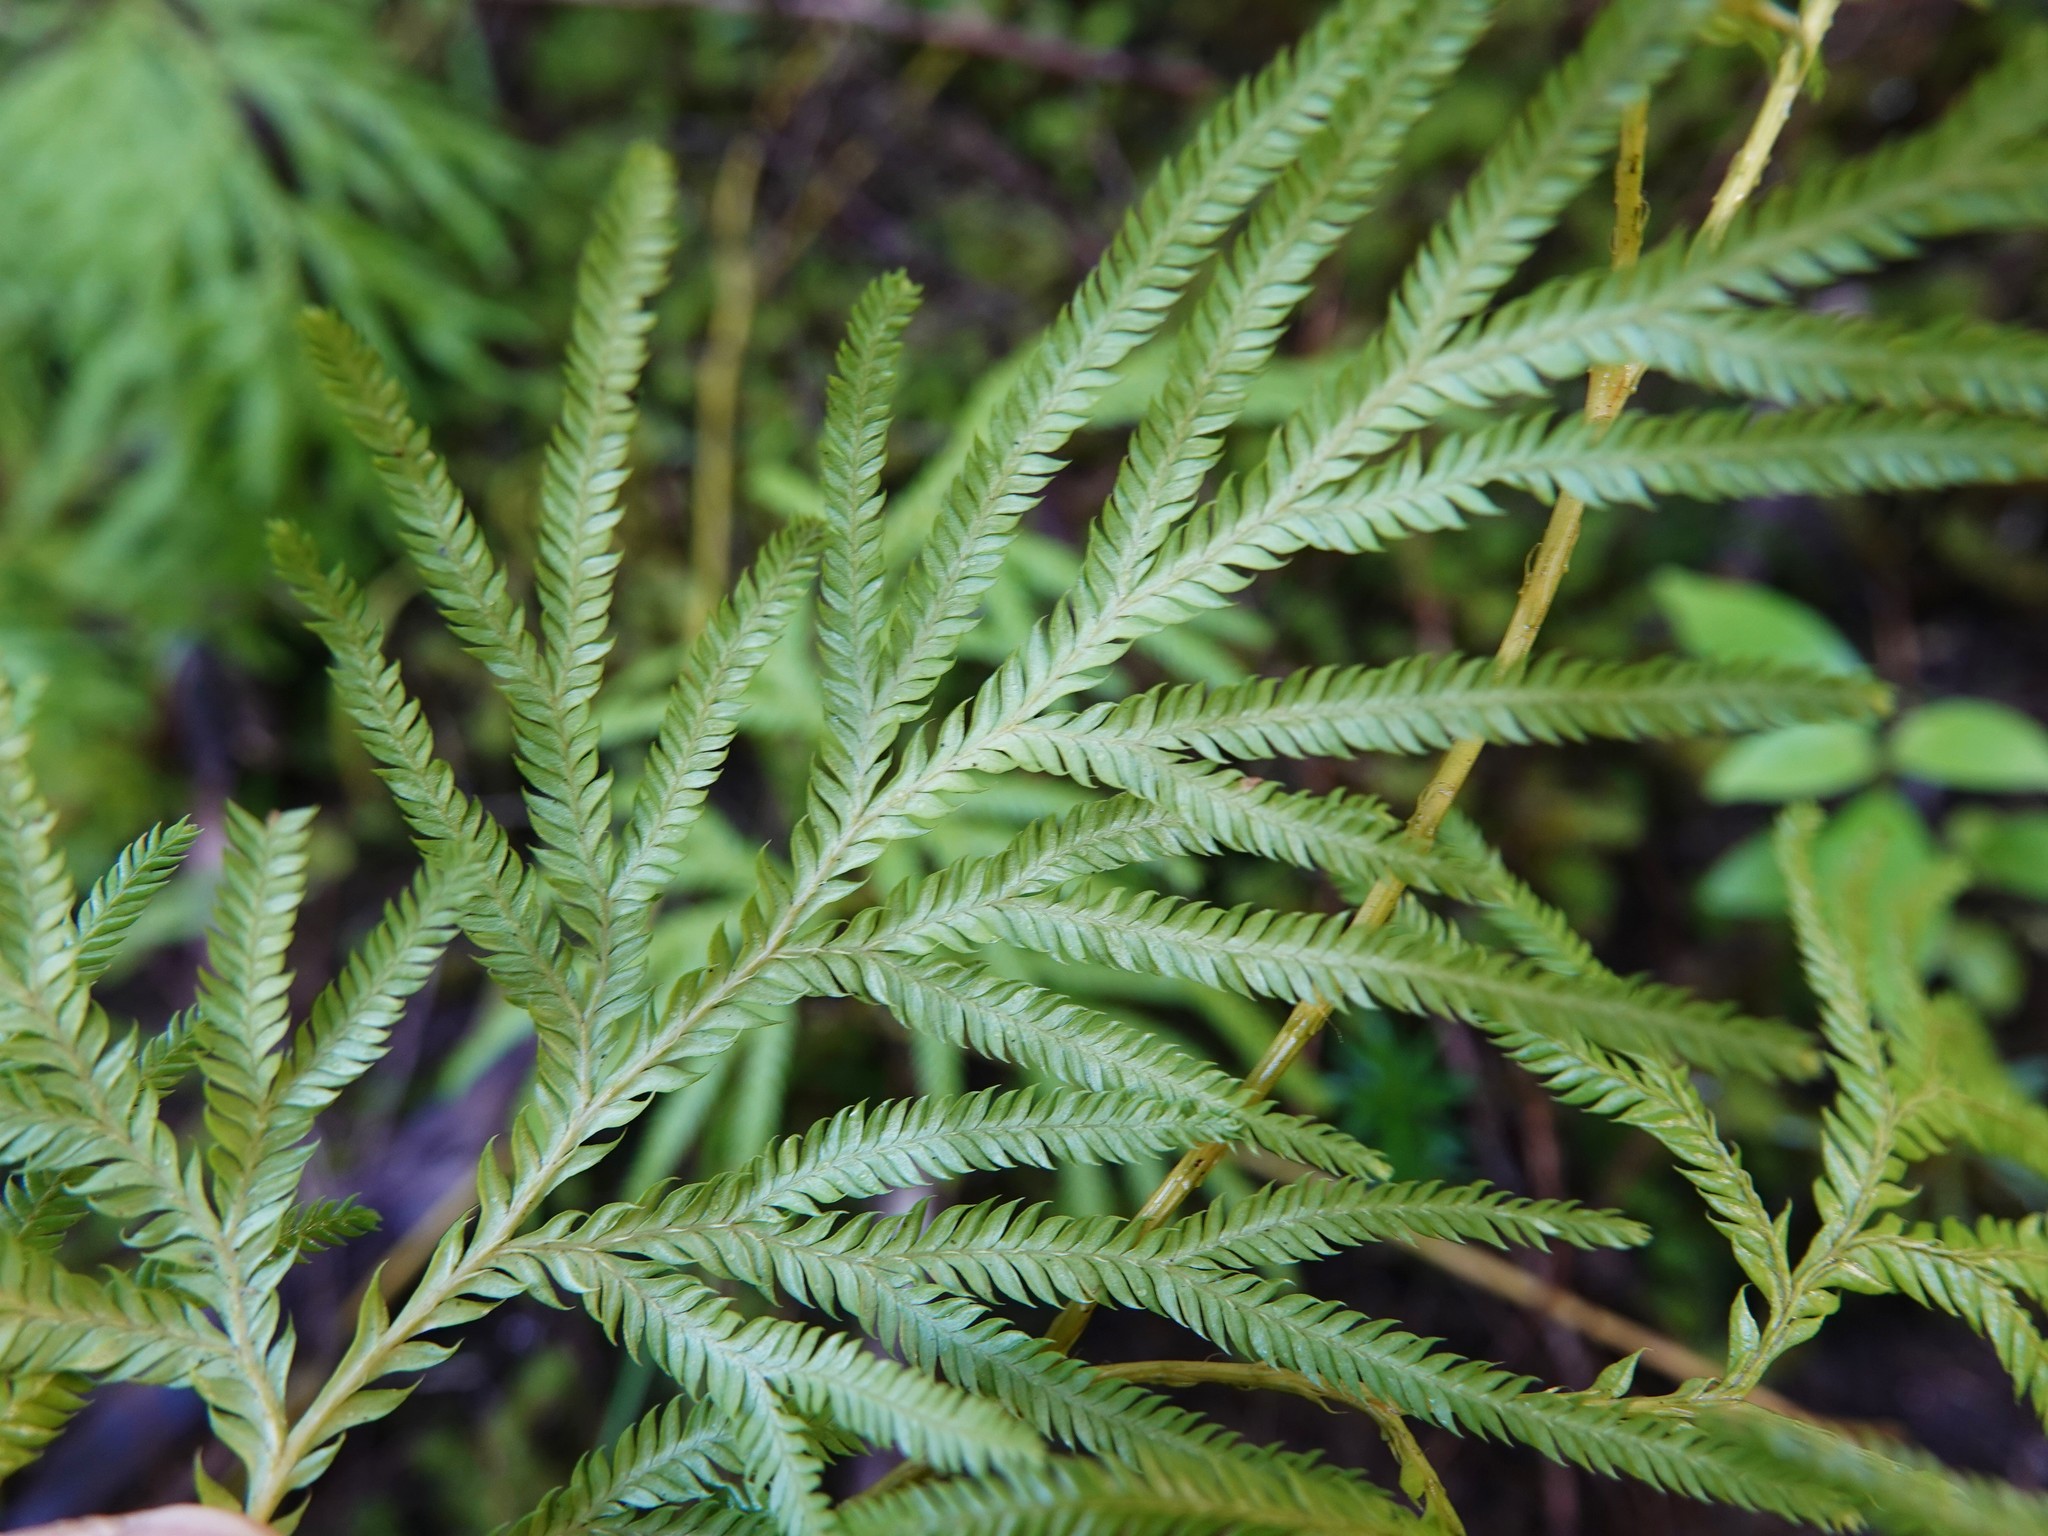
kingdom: Plantae
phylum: Tracheophyta
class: Lycopodiopsida
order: Lycopodiales
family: Lycopodiaceae
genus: Lycopodium
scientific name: Lycopodium volubile
